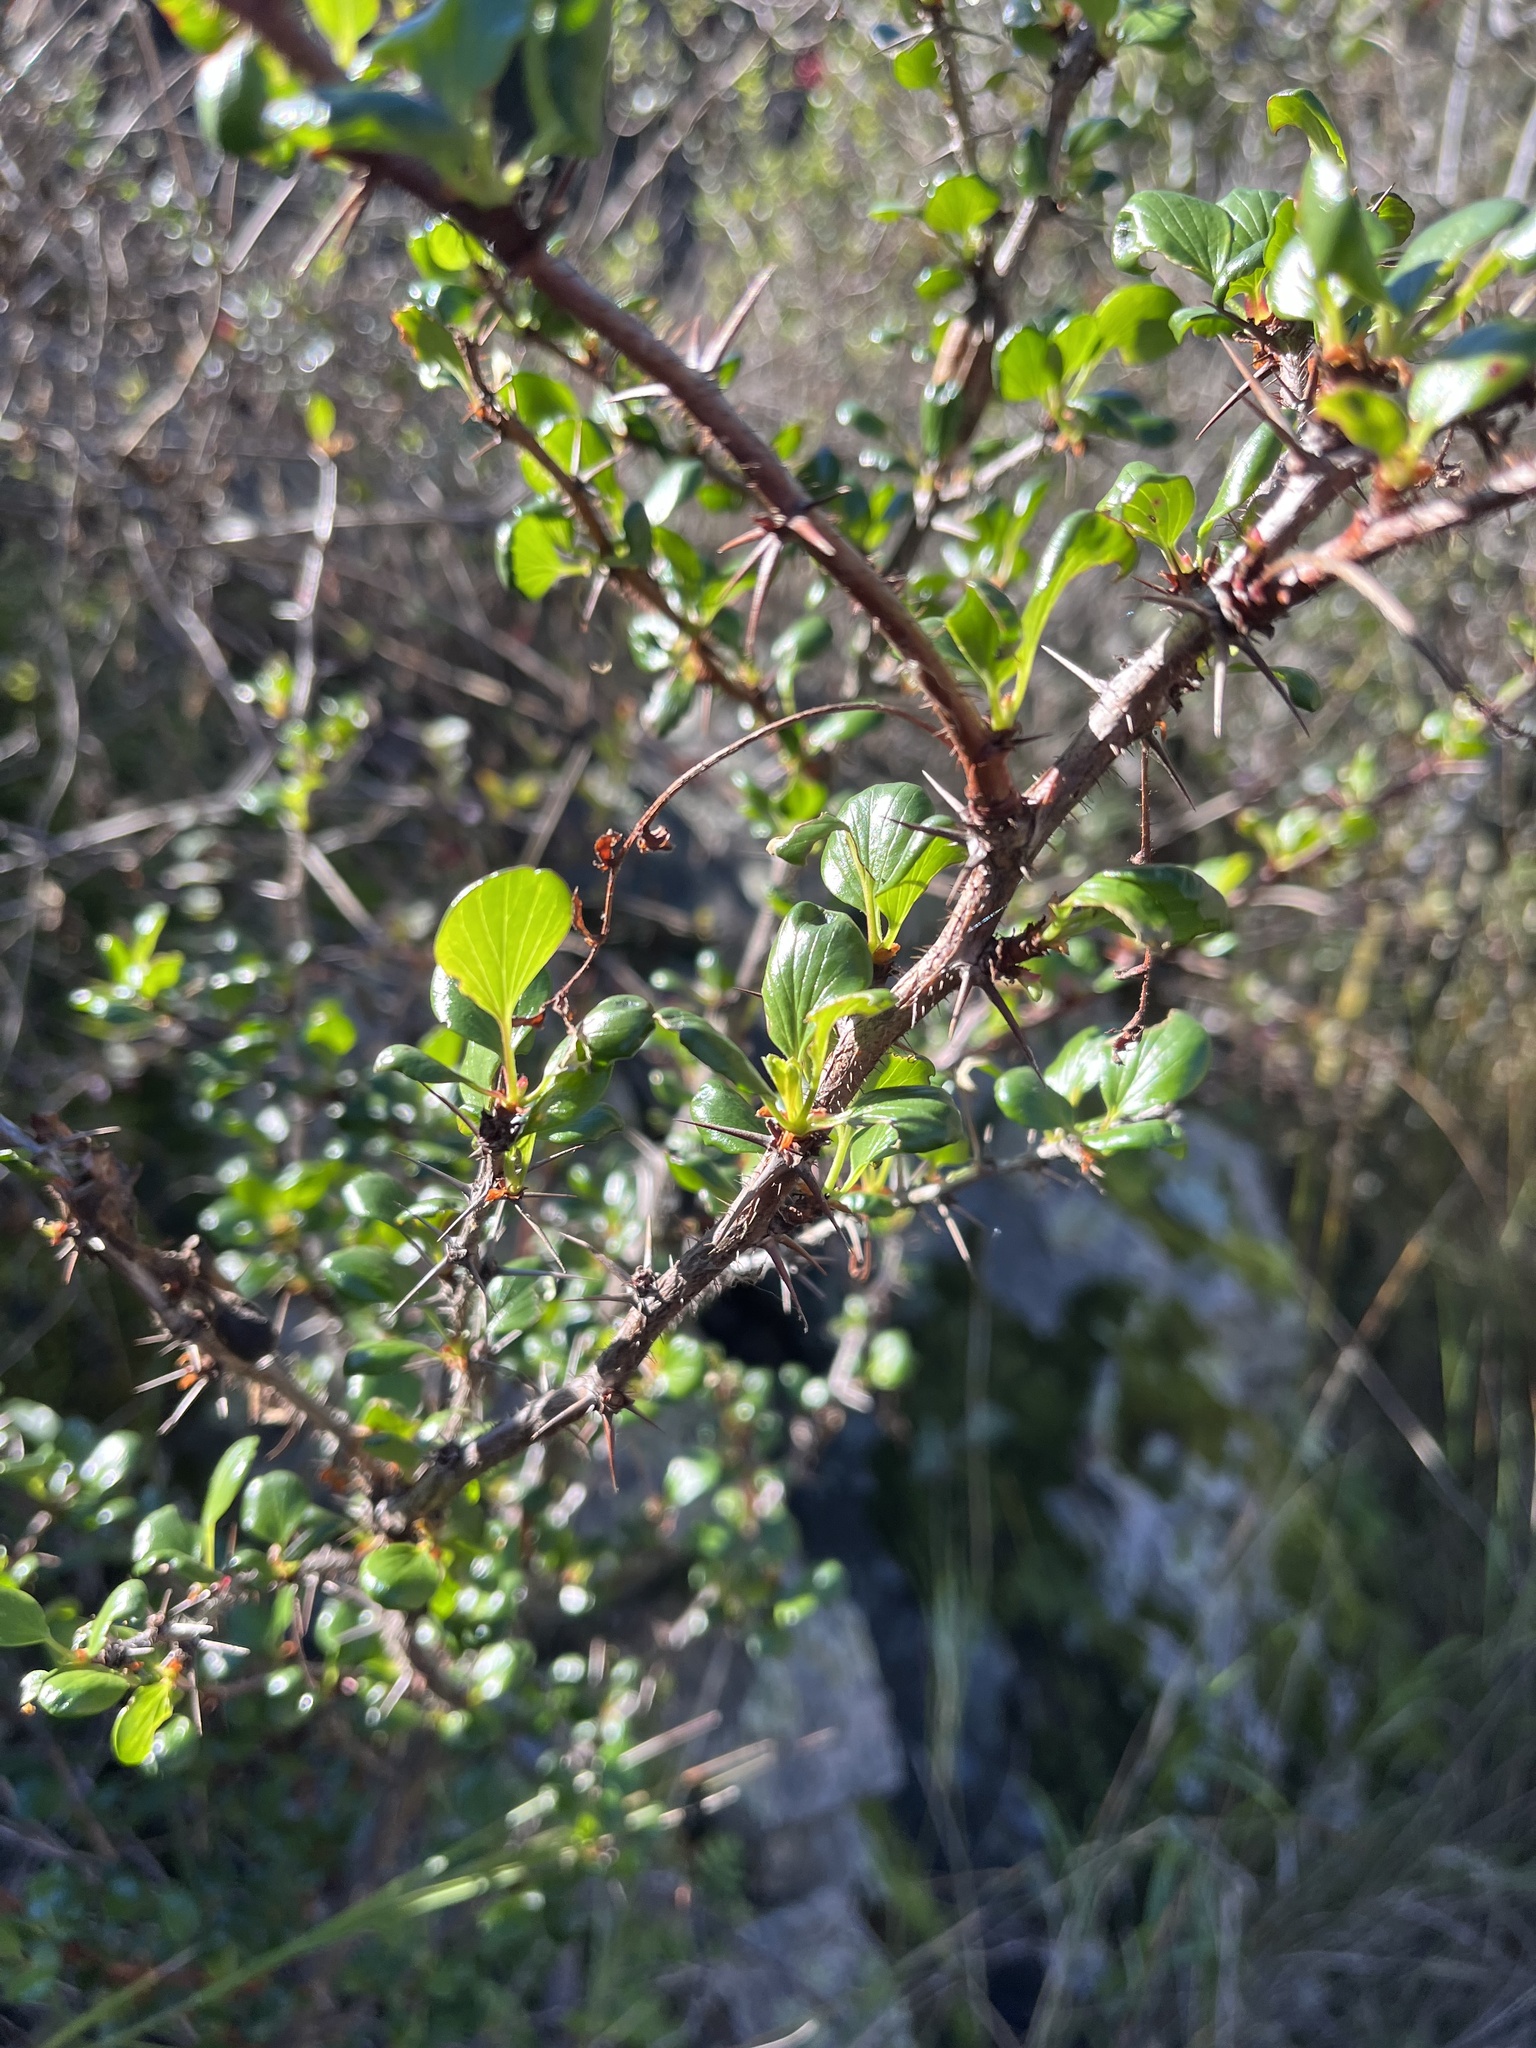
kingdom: Plantae
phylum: Tracheophyta
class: Magnoliopsida
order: Saxifragales
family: Grossulariaceae
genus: Ribes
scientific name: Ribes speciosum
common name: Fuchsia-flower gooseberry
